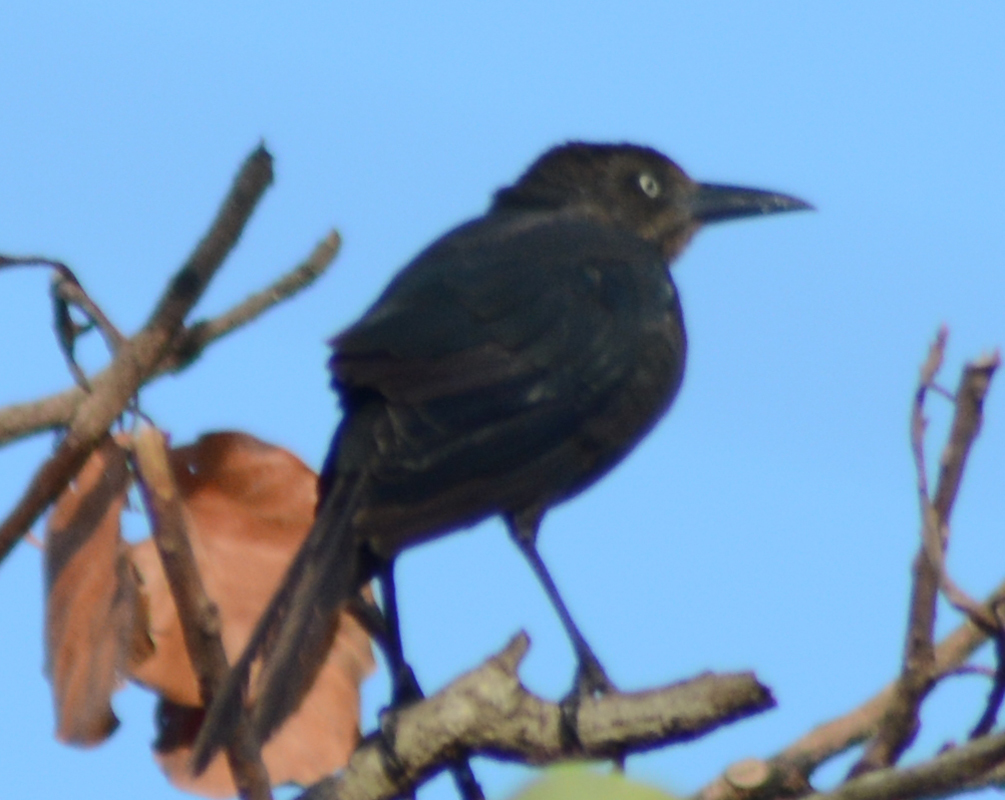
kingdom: Animalia
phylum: Chordata
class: Aves
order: Passeriformes
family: Icteridae
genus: Quiscalus
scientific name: Quiscalus mexicanus
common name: Great-tailed grackle
